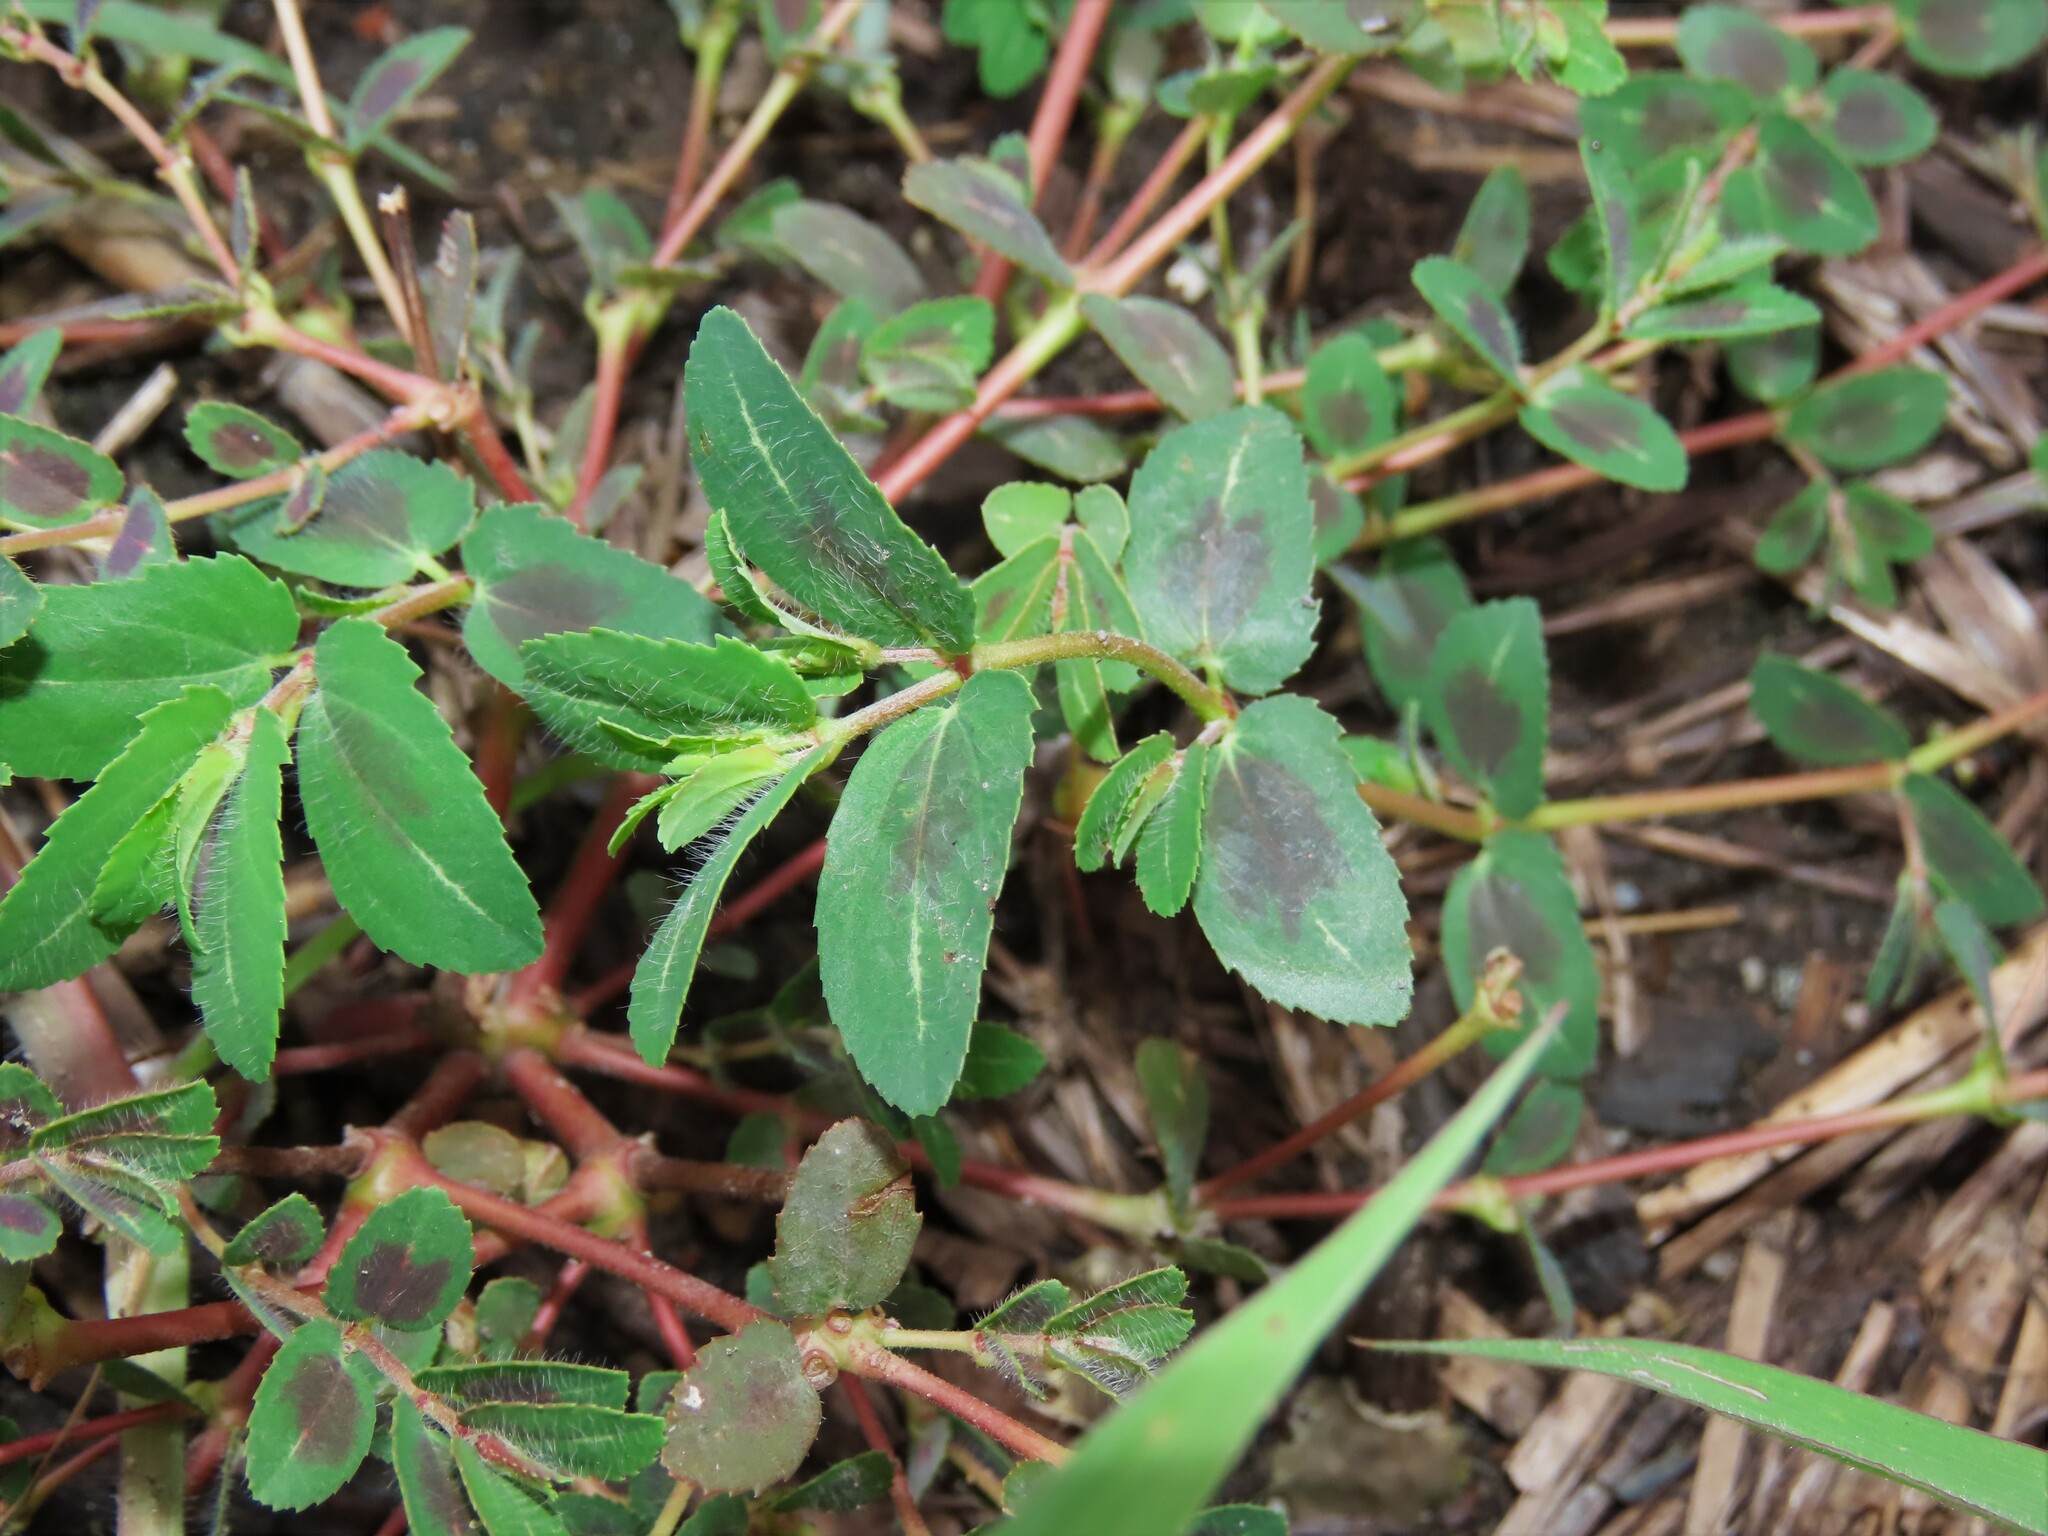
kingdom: Plantae
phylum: Tracheophyta
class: Magnoliopsida
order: Malpighiales
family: Euphorbiaceae
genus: Euphorbia
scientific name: Euphorbia nutans
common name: Eyebane
